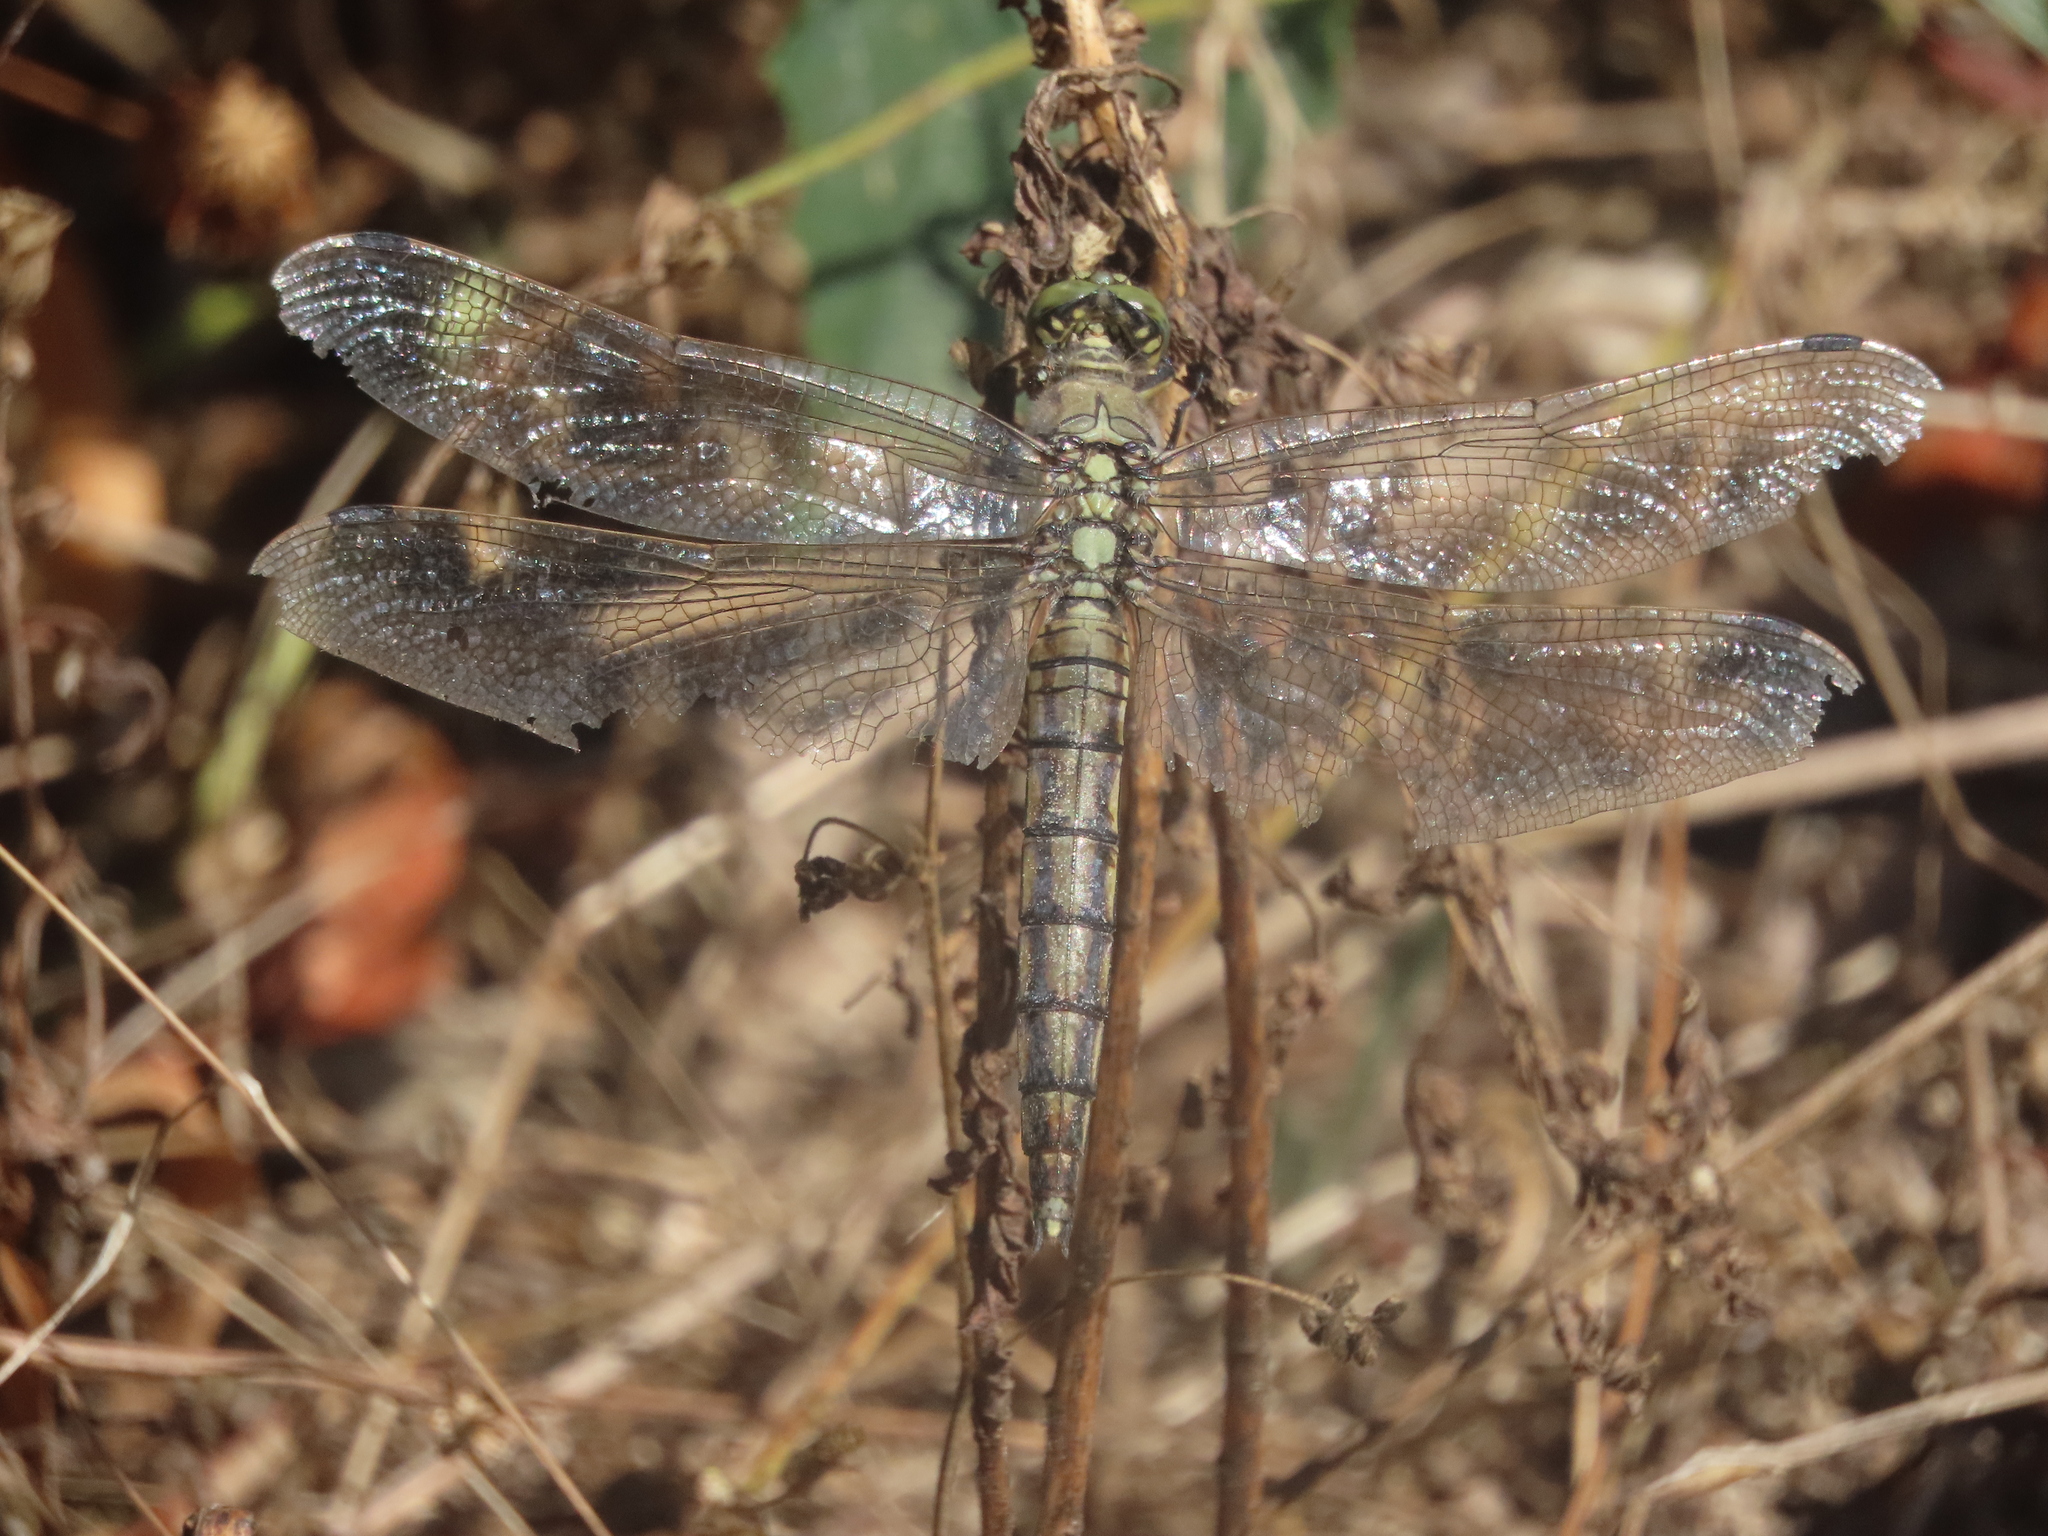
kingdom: Animalia
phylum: Arthropoda
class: Insecta
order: Odonata
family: Libellulidae
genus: Orthetrum
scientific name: Orthetrum cancellatum
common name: Black-tailed skimmer
